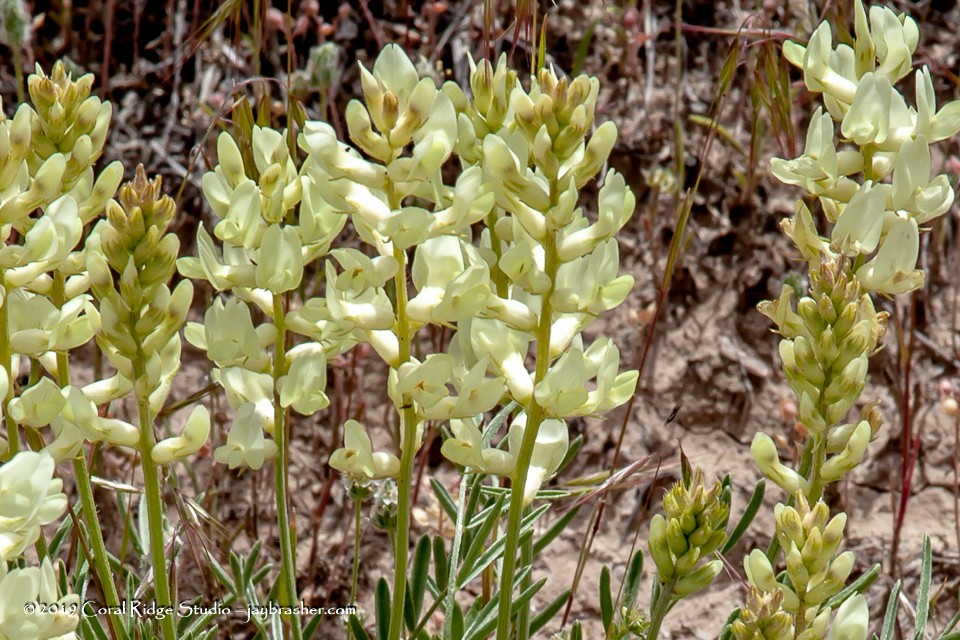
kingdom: Plantae
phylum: Tracheophyta
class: Magnoliopsida
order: Fabales
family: Fabaceae
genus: Astragalus
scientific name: Astragalus flavus
